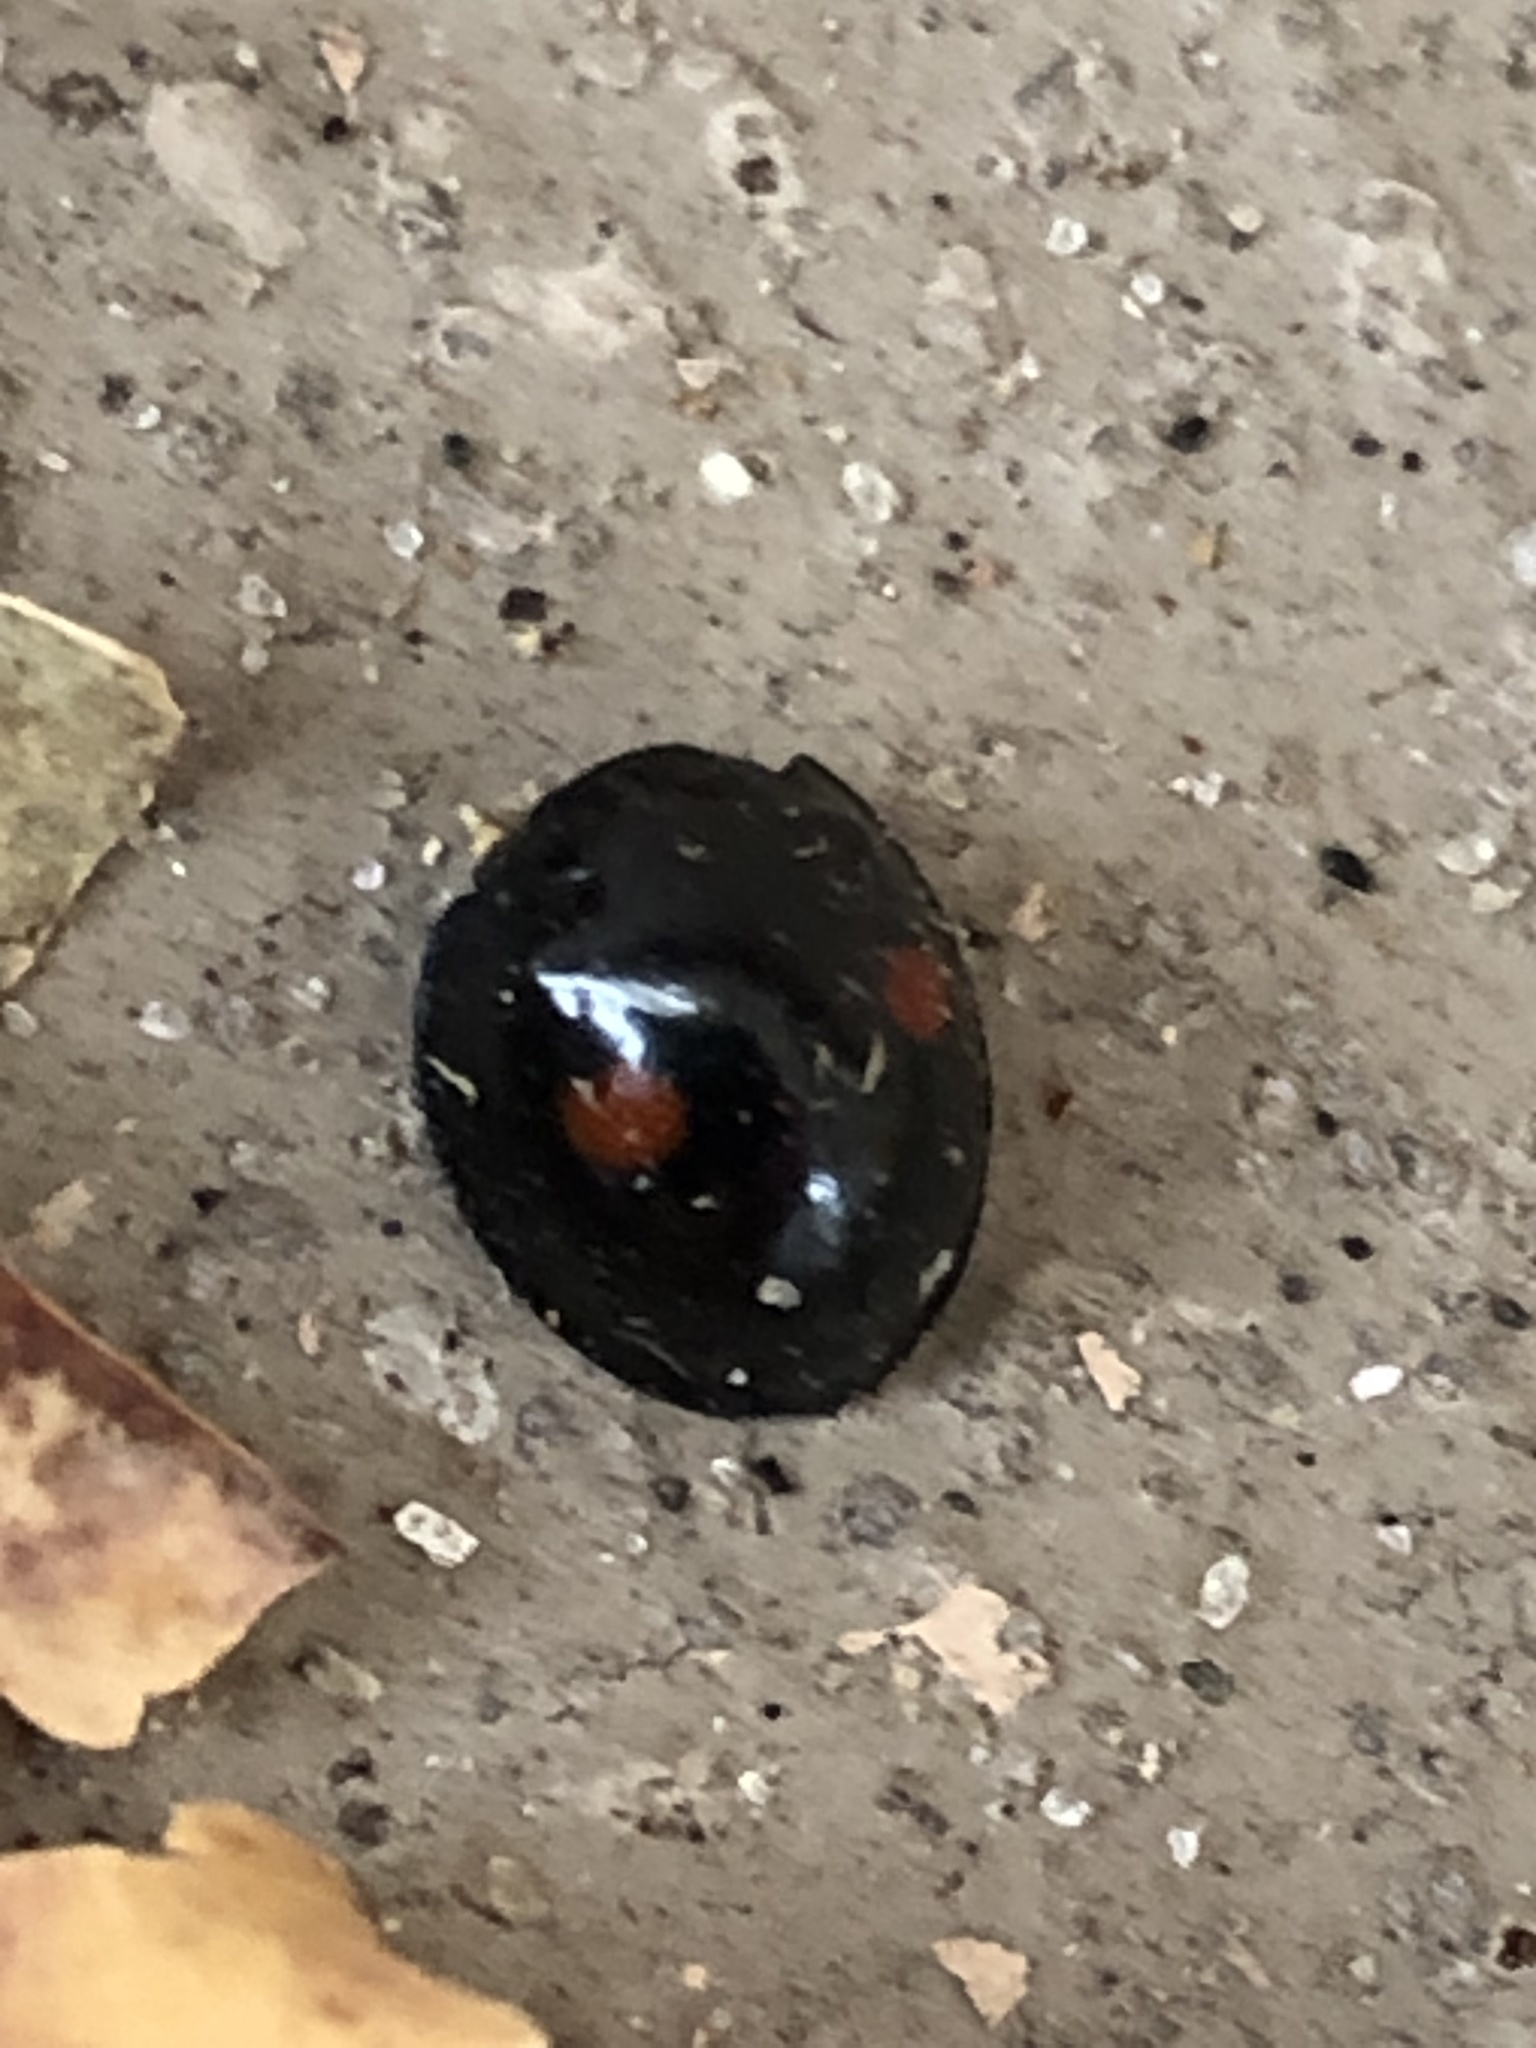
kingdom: Animalia
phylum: Arthropoda
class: Insecta
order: Coleoptera
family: Coccinellidae
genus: Chilocorus
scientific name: Chilocorus stigma
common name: Twicestabbed lady beetle
